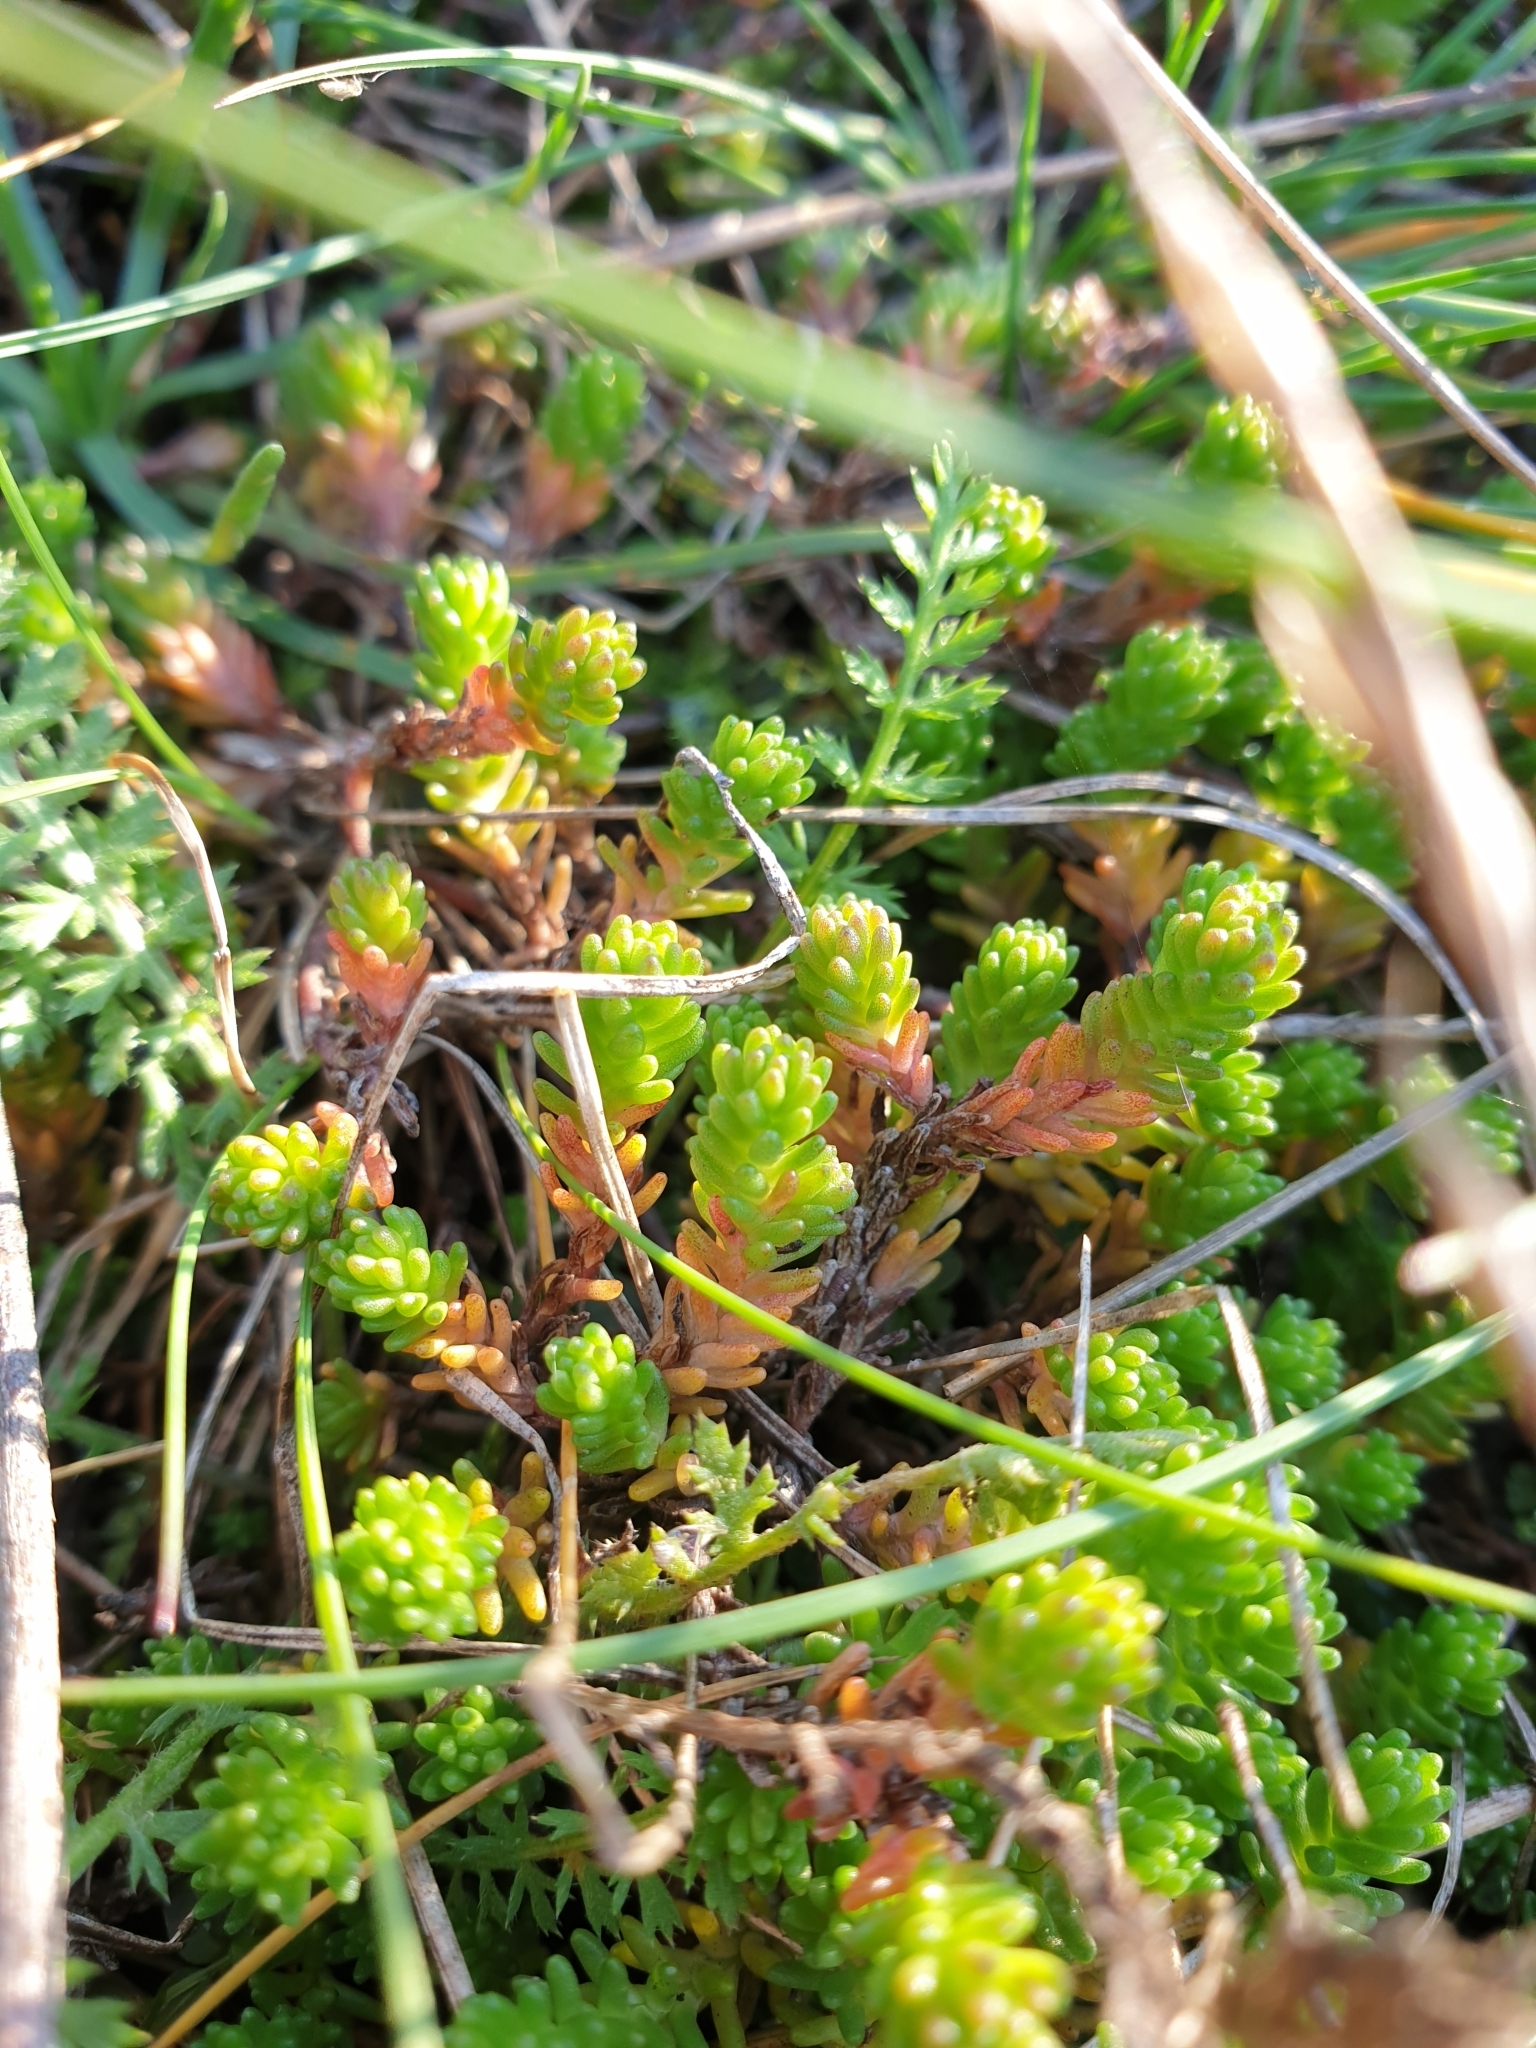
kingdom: Plantae
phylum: Tracheophyta
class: Magnoliopsida
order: Saxifragales
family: Crassulaceae
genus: Sedum
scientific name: Sedum sexangulare
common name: Tasteless stonecrop
